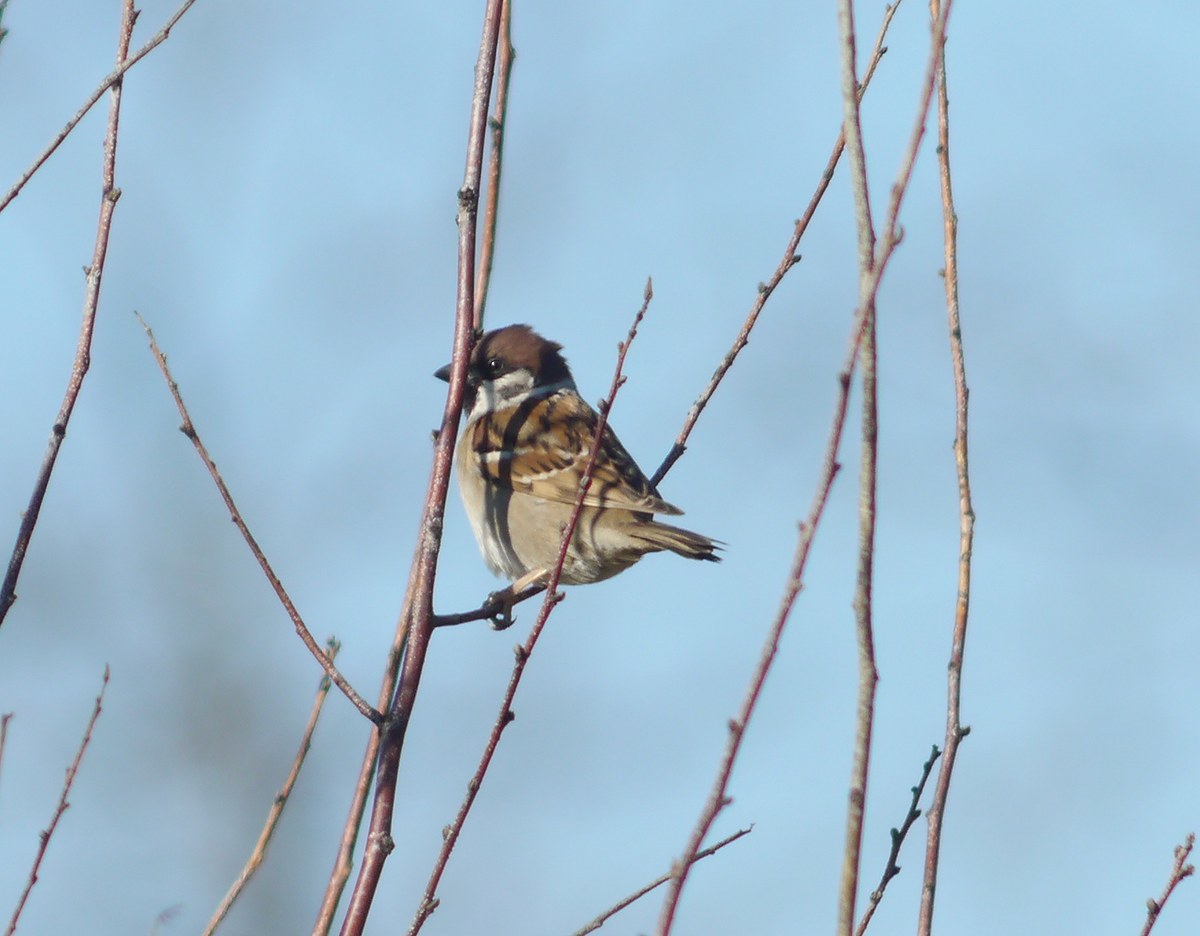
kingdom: Animalia
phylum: Chordata
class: Aves
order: Passeriformes
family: Passeridae
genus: Passer
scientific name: Passer montanus
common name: Eurasian tree sparrow
